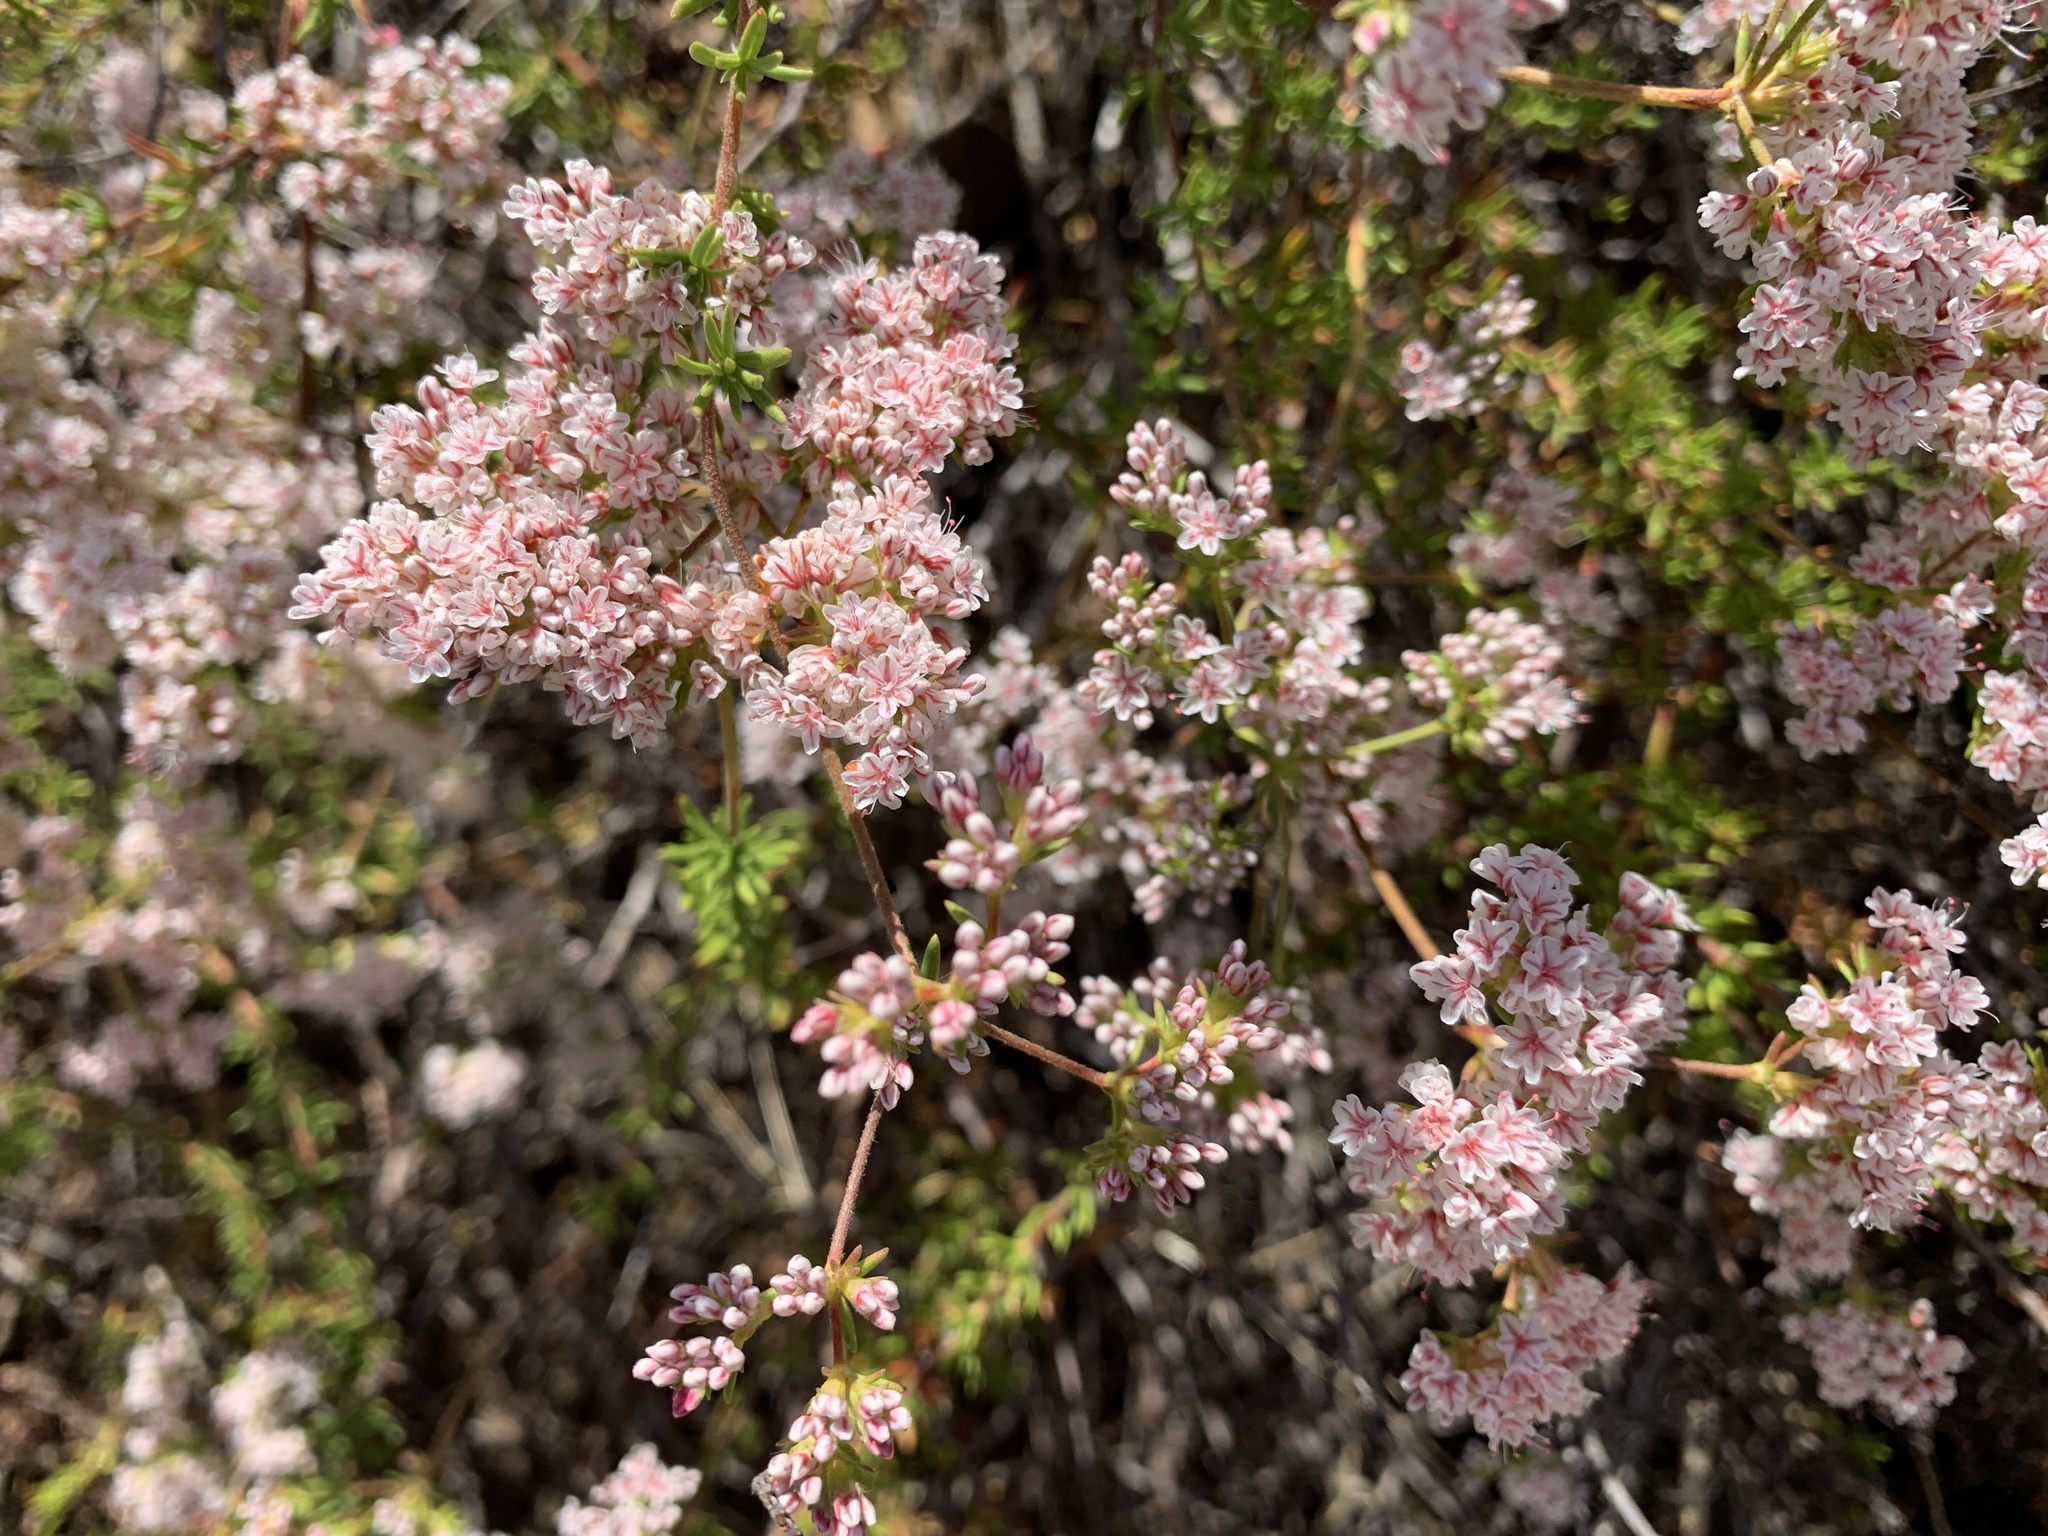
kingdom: Plantae
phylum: Tracheophyta
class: Magnoliopsida
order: Caryophyllales
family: Polygonaceae
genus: Eriogonum
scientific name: Eriogonum fasciculatum
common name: California wild buckwheat
